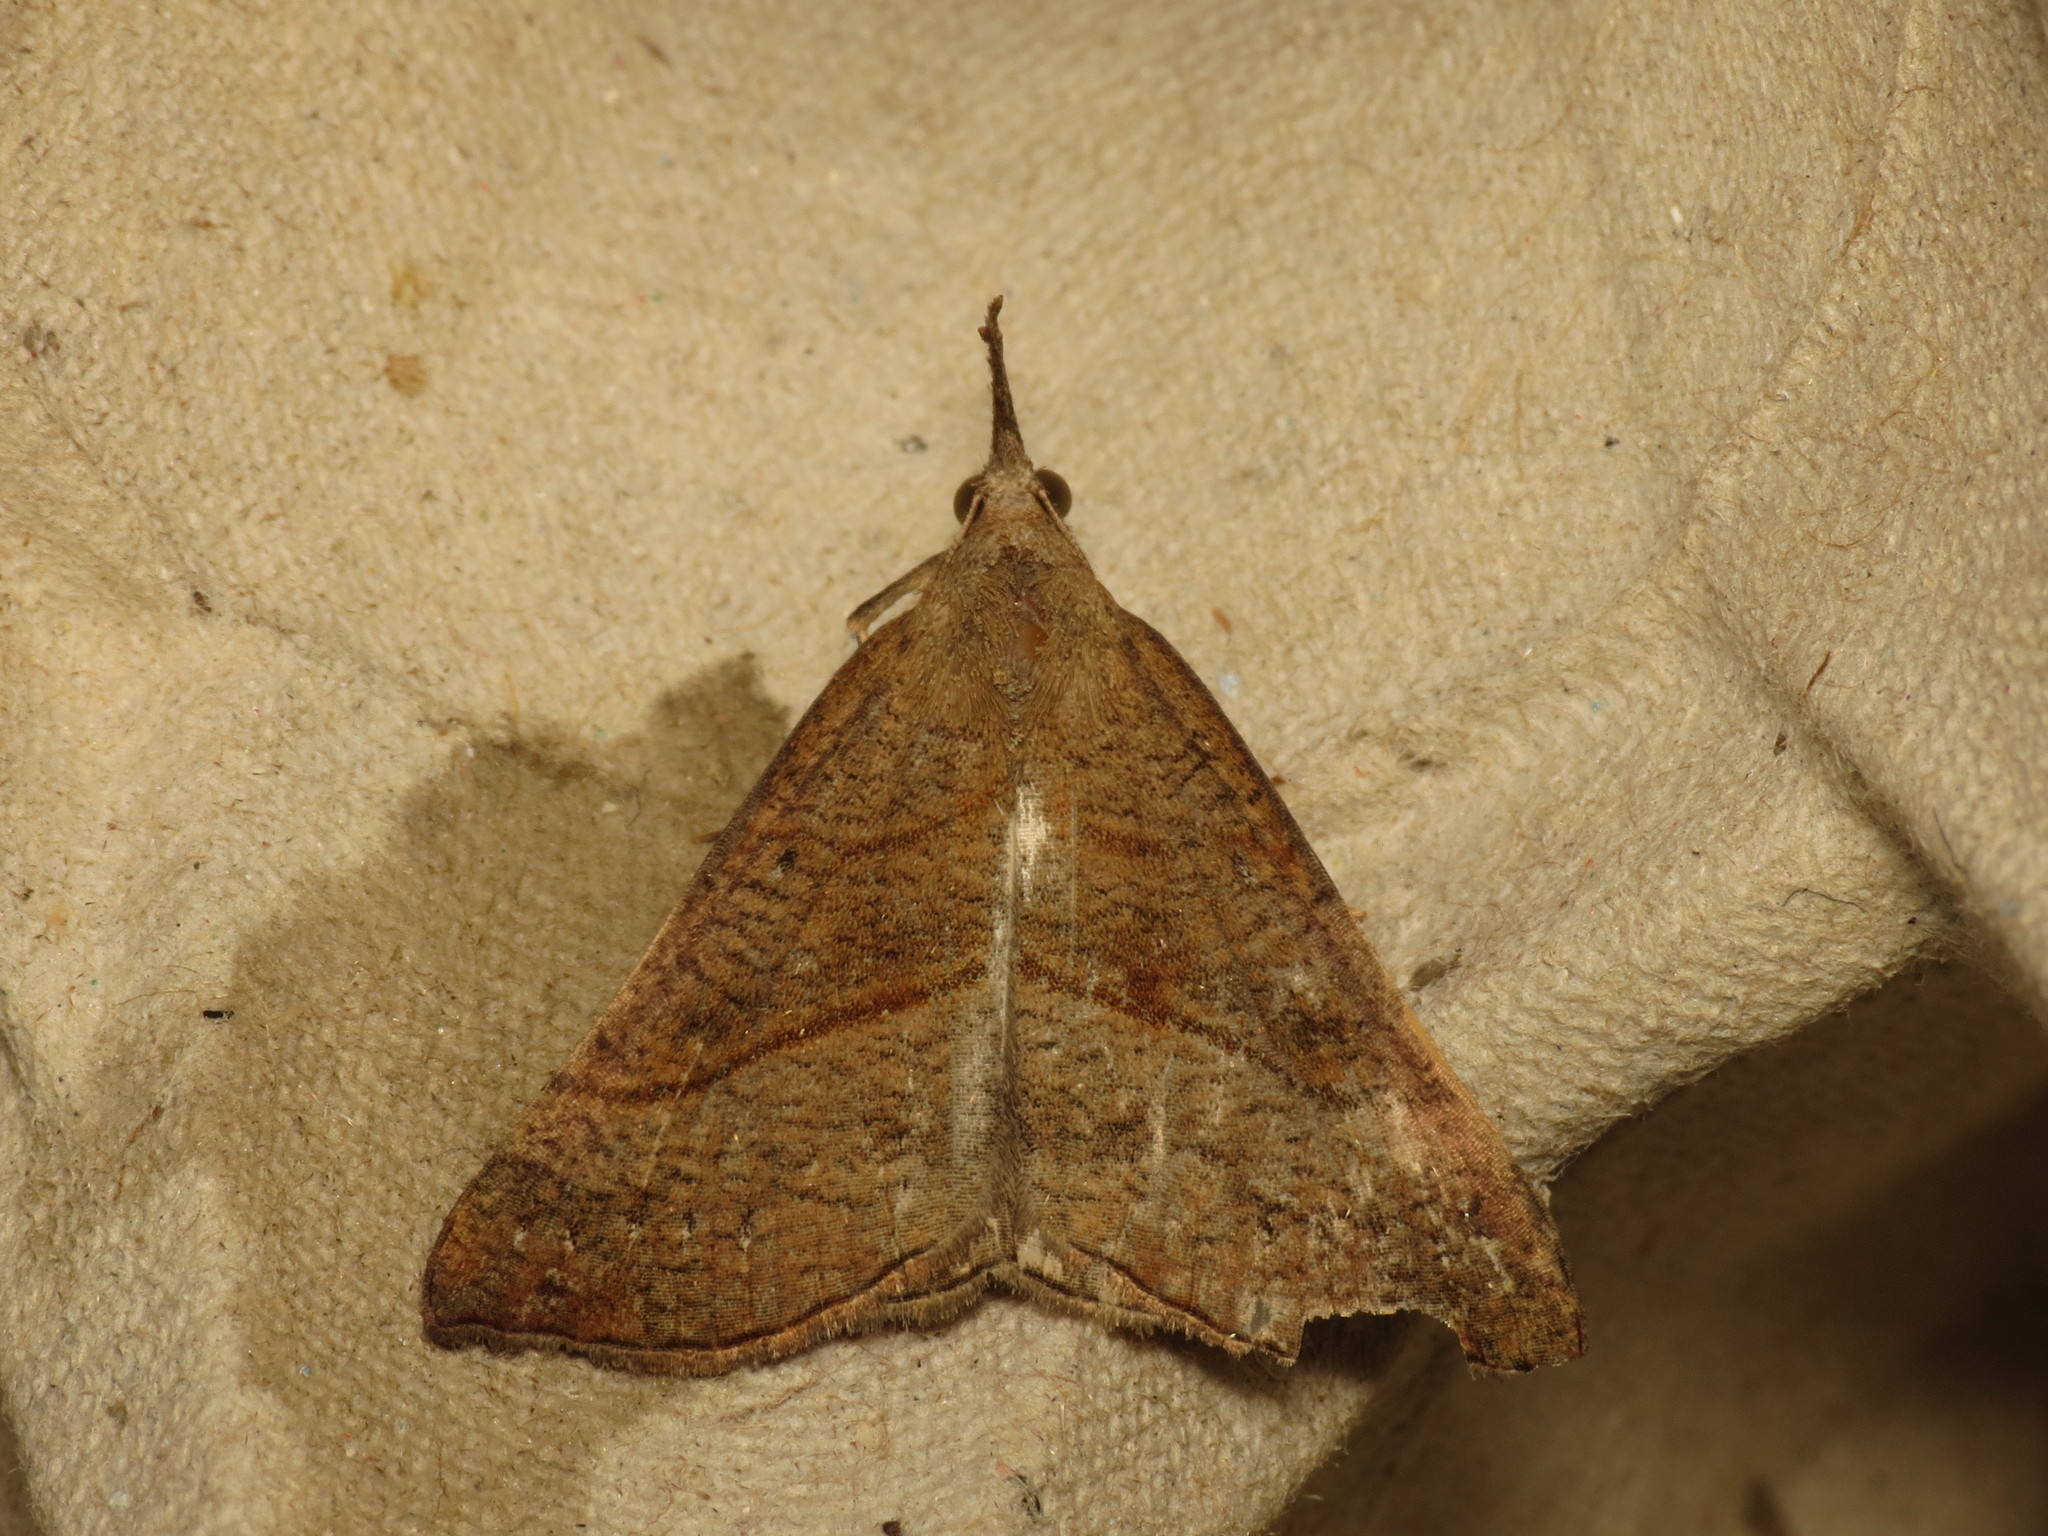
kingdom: Animalia
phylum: Arthropoda
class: Insecta
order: Lepidoptera
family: Erebidae
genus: Hypena
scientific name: Hypena proboscidalis
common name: Snout
